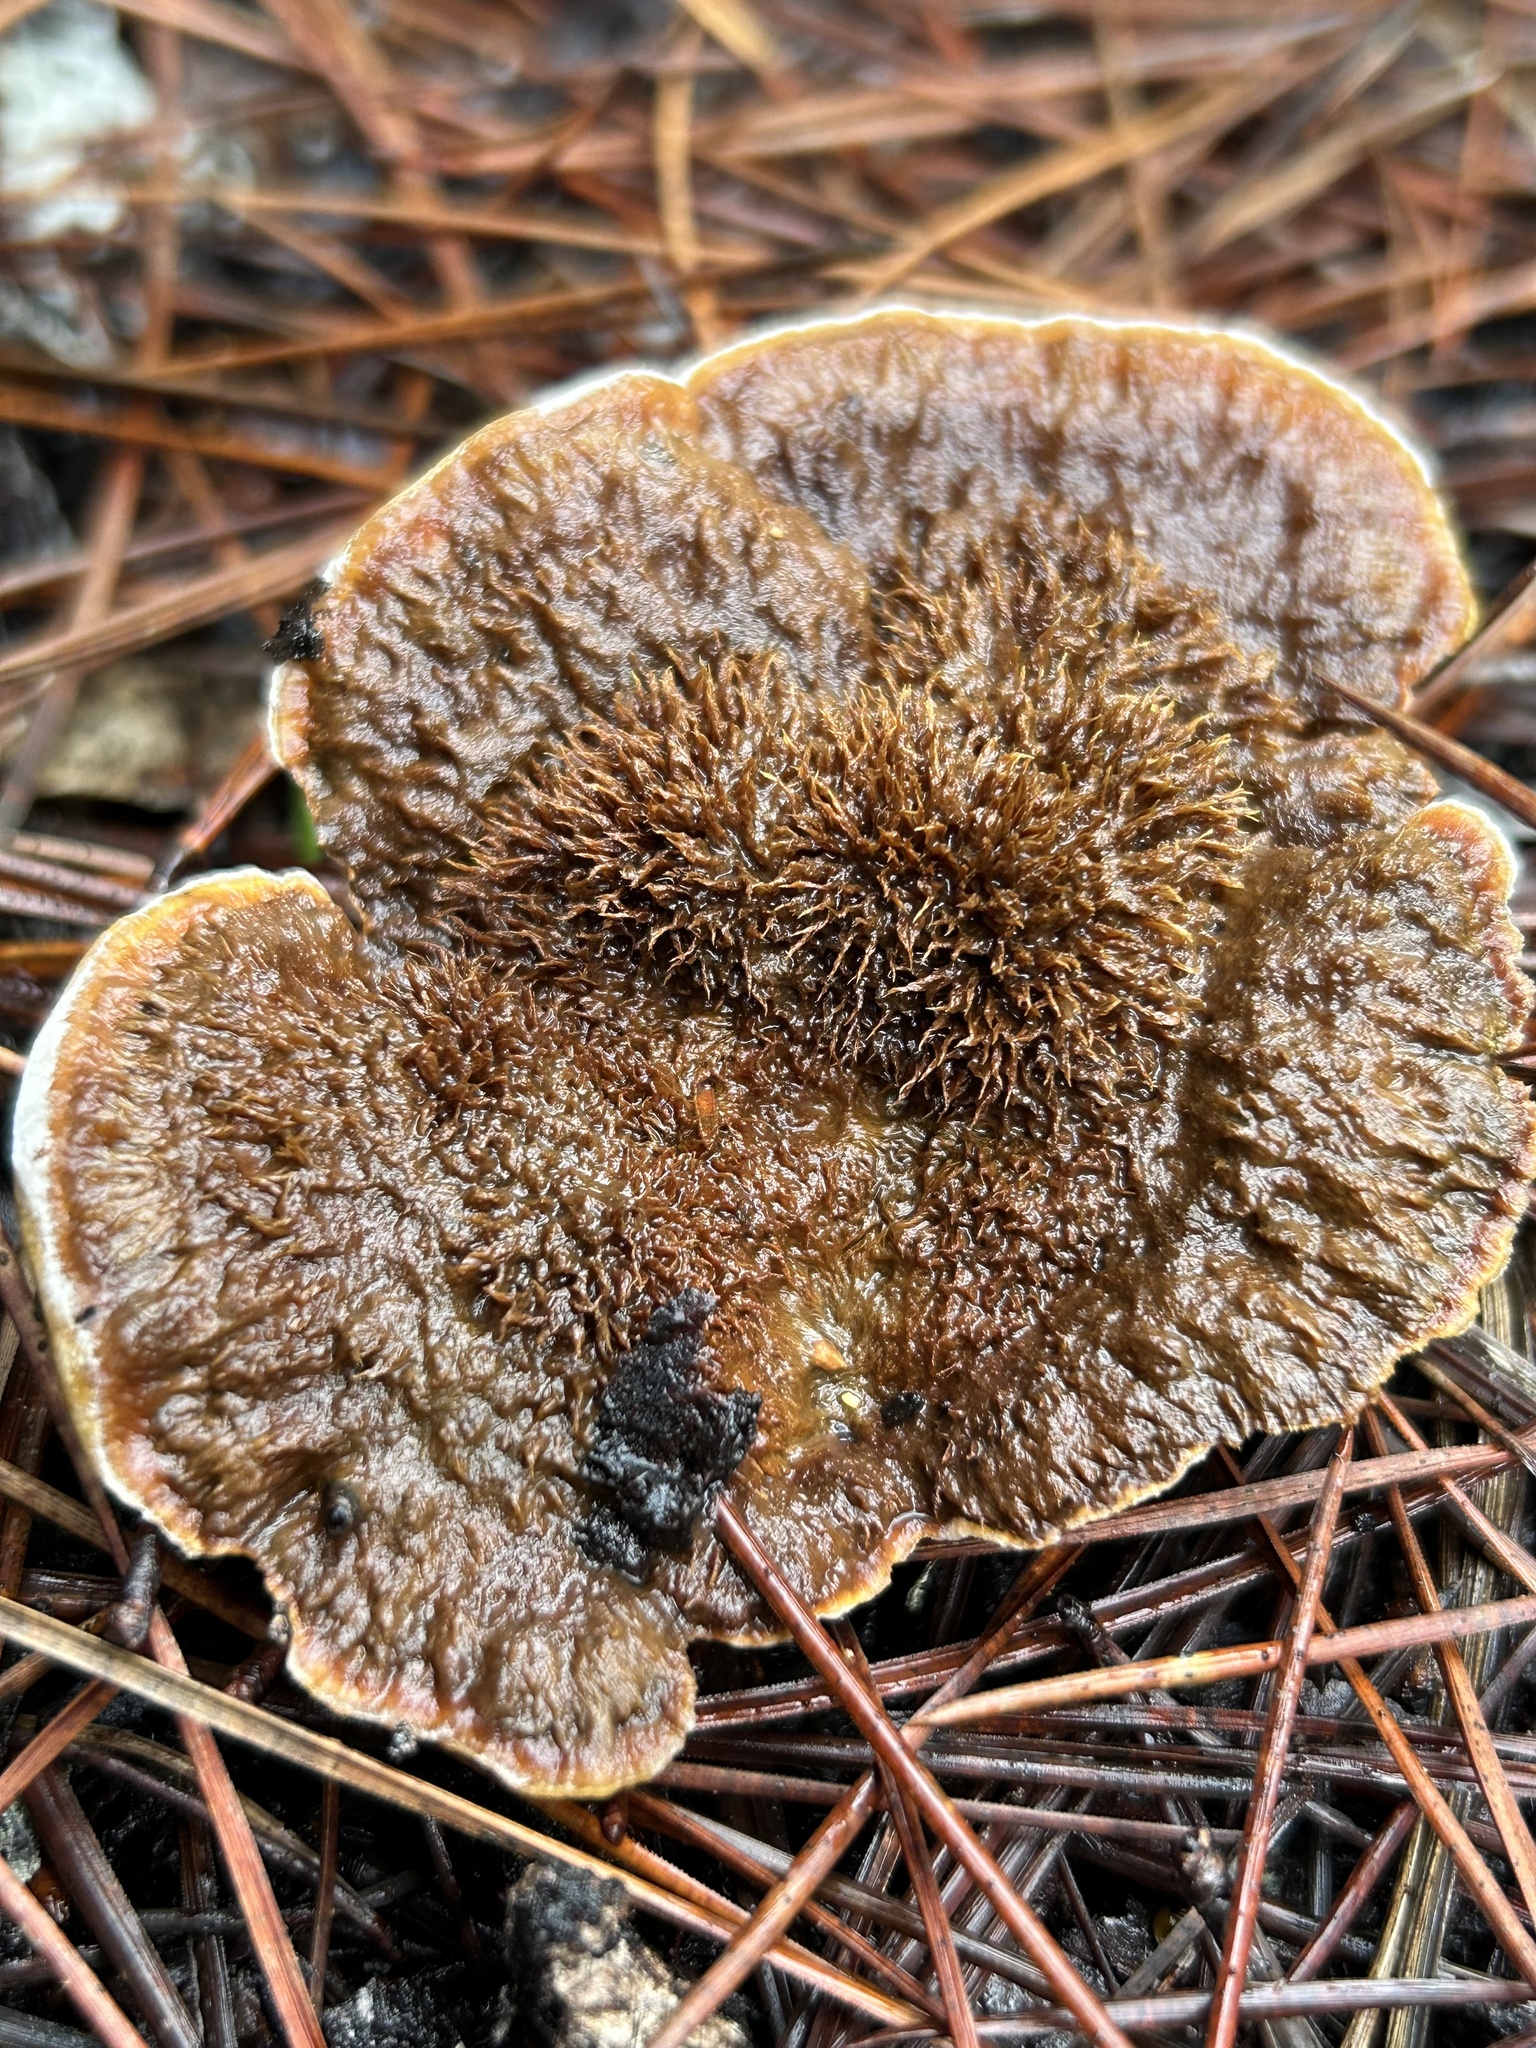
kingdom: Fungi
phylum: Basidiomycota
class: Agaricomycetes
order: Polyporales
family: Laetiporaceae
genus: Phaeolus
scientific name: Phaeolus schweinitzii
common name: Dyer's mazegill
